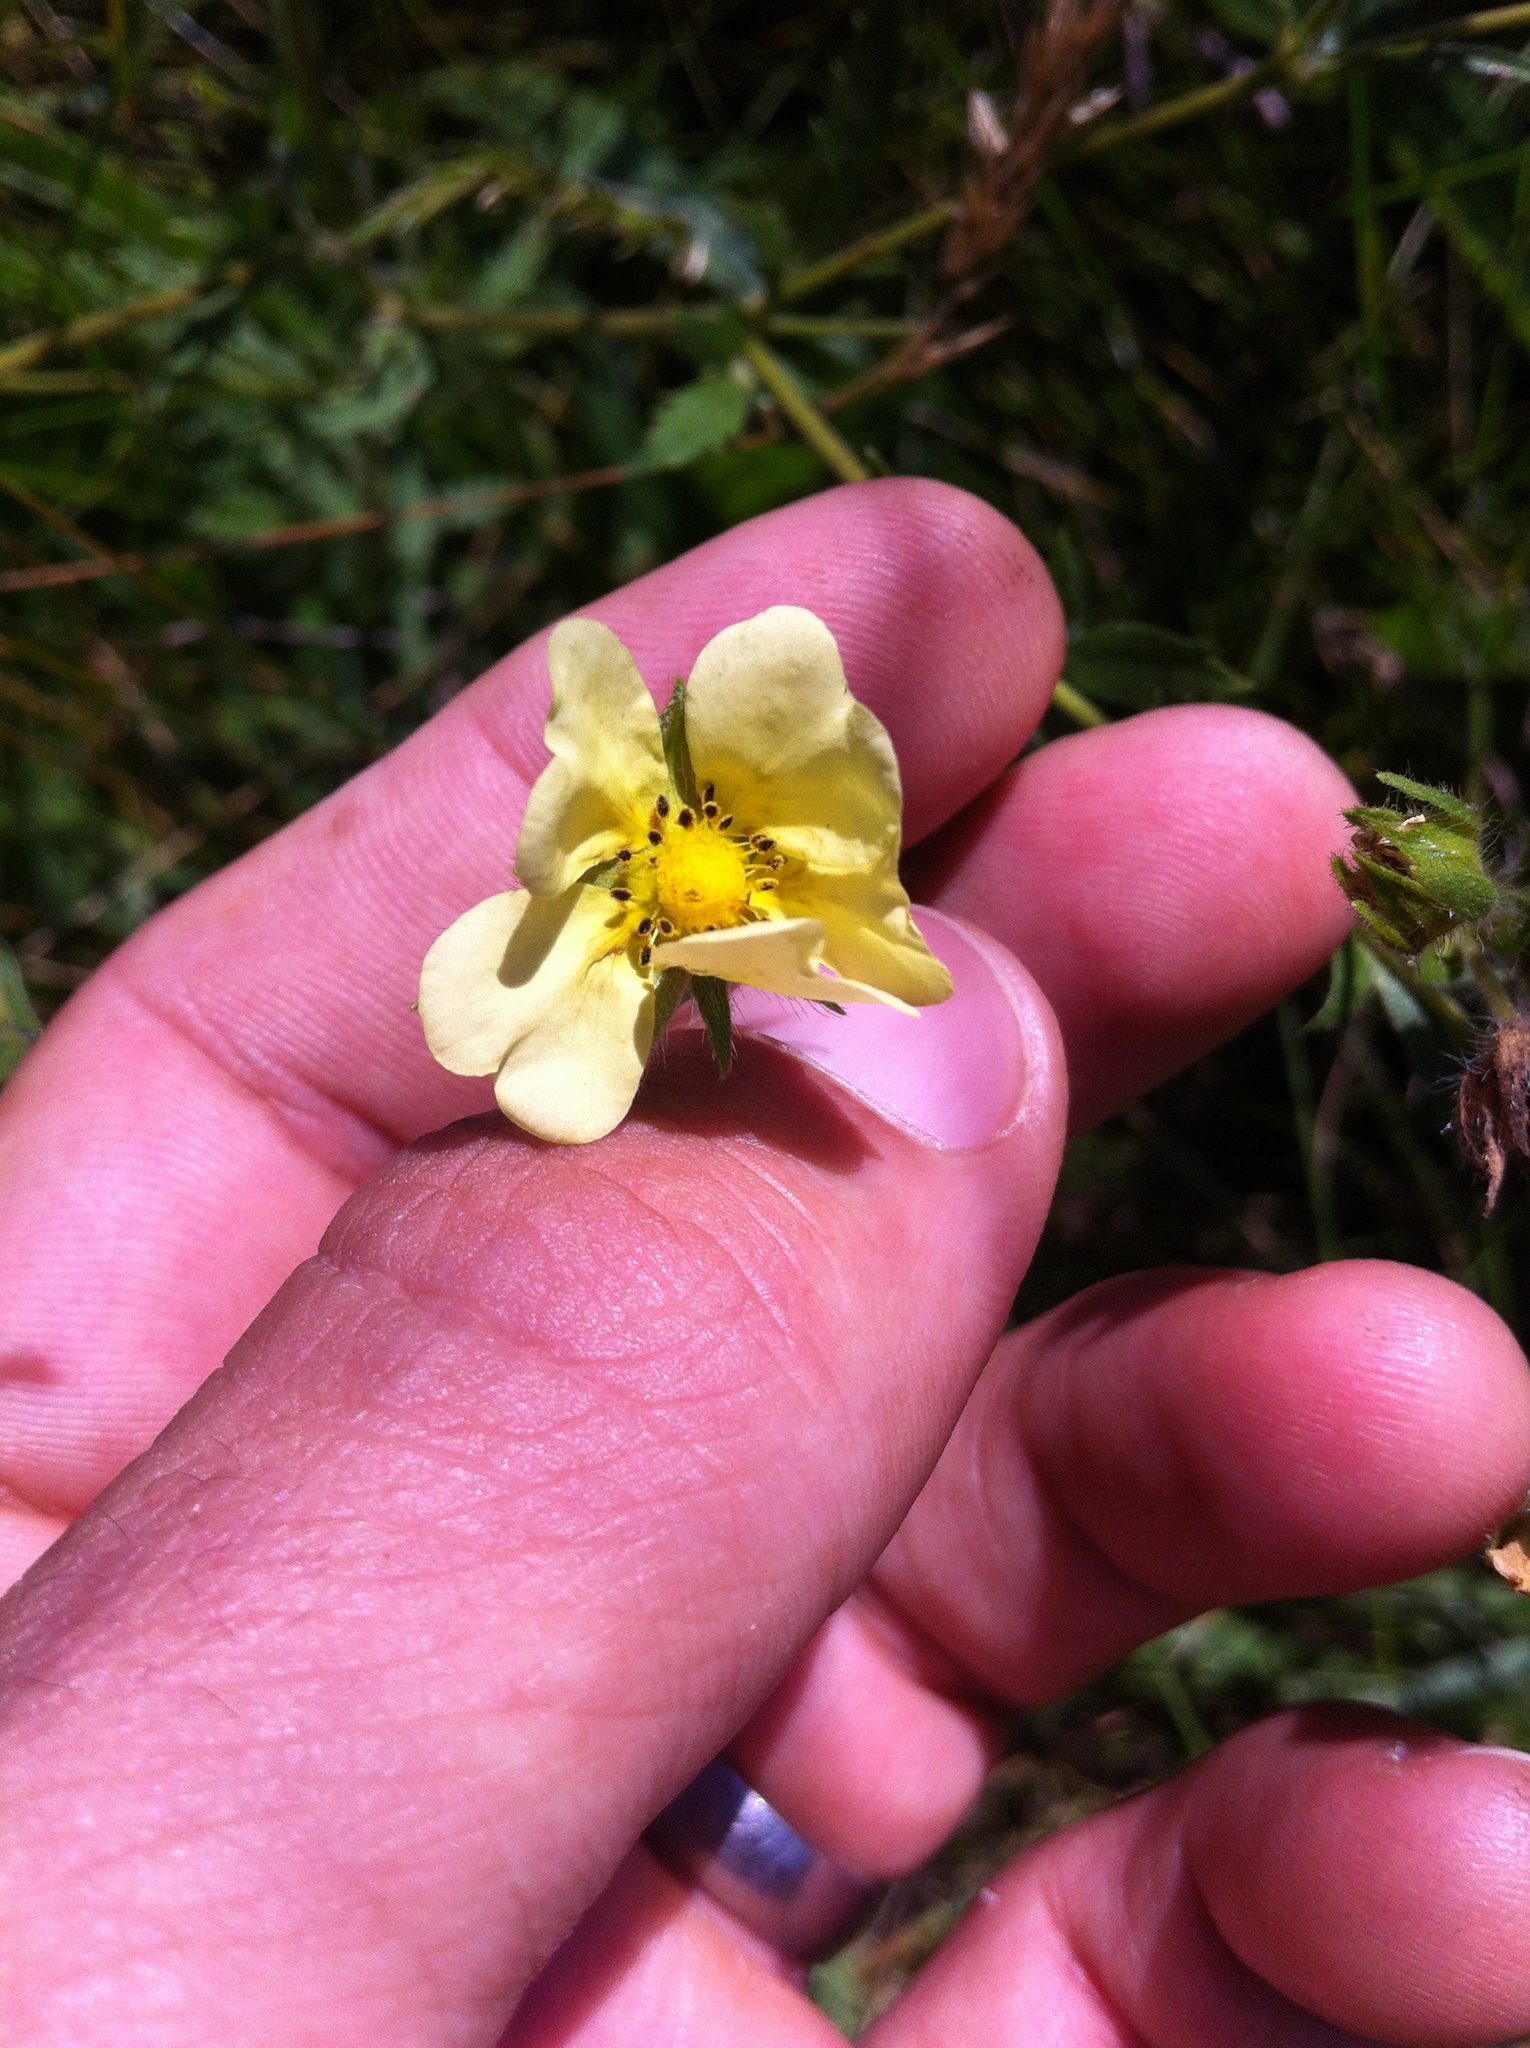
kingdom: Plantae
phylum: Tracheophyta
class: Magnoliopsida
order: Rosales
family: Rosaceae
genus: Potentilla
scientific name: Potentilla recta
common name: Sulphur cinquefoil
